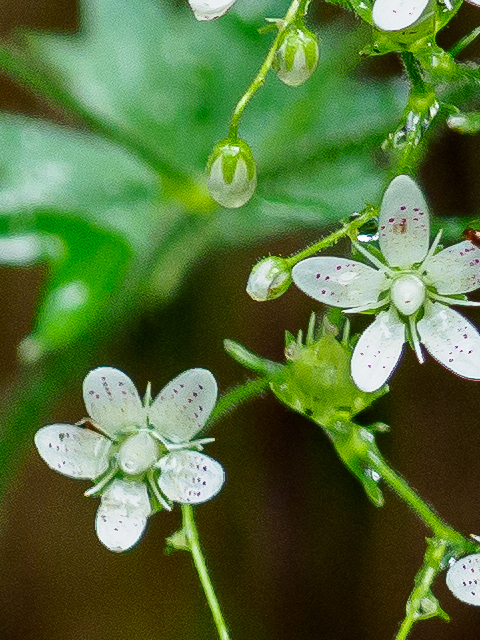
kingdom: Plantae
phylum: Tracheophyta
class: Magnoliopsida
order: Saxifragales
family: Saxifragaceae
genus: Saxifraga
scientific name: Saxifraga rotundifolia
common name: Round-leaved saxifrage
